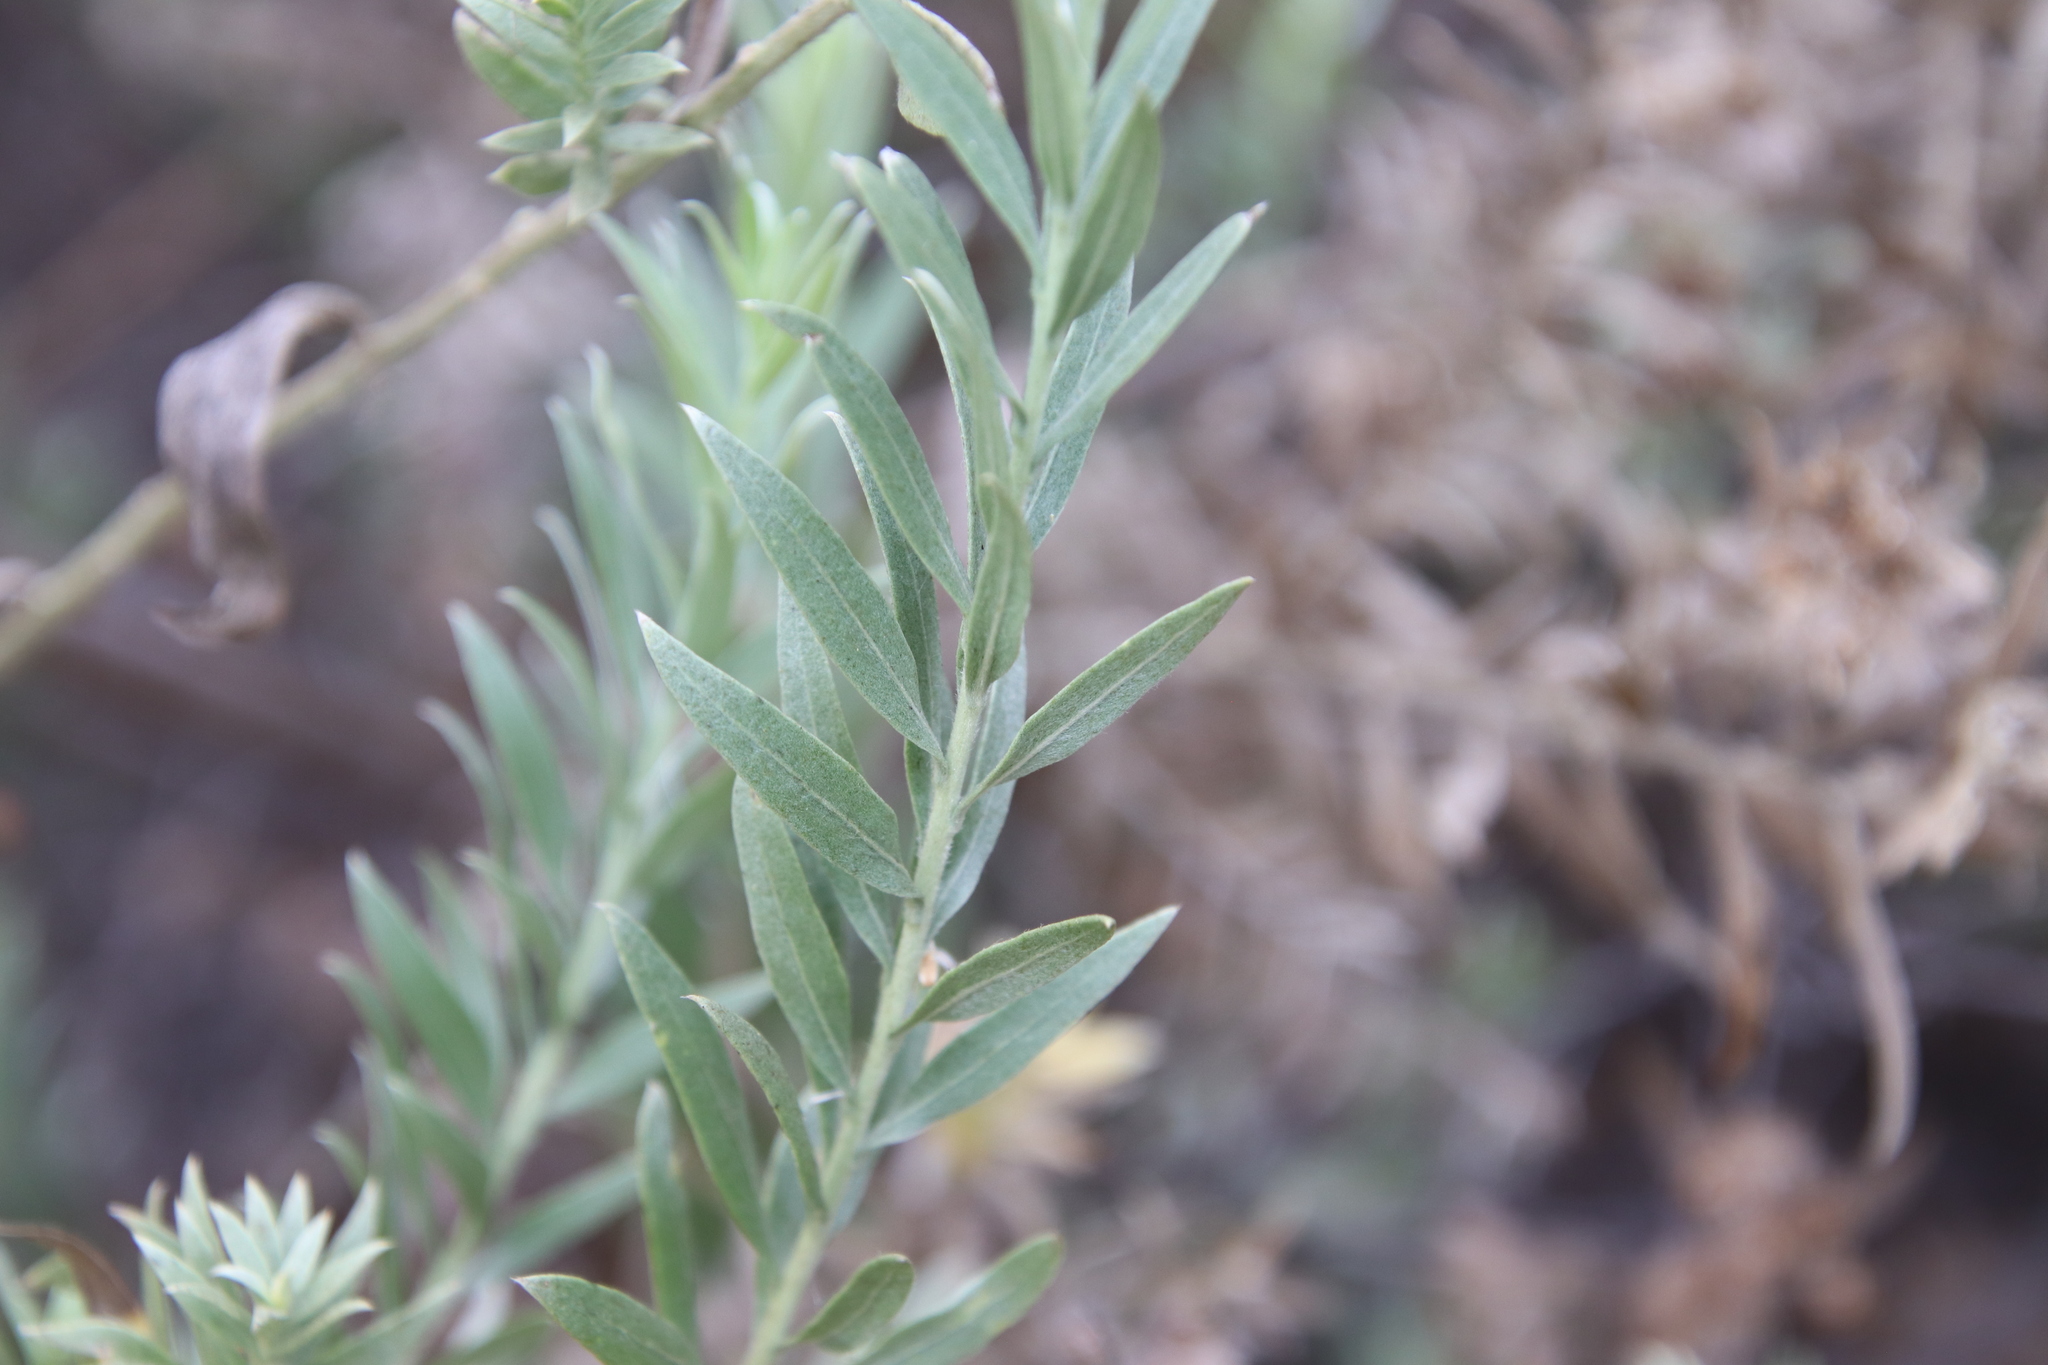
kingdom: Plantae
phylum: Tracheophyta
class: Magnoliopsida
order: Asterales
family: Asteraceae
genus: Pluchea
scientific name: Pluchea sericea
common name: Arrow-weed
